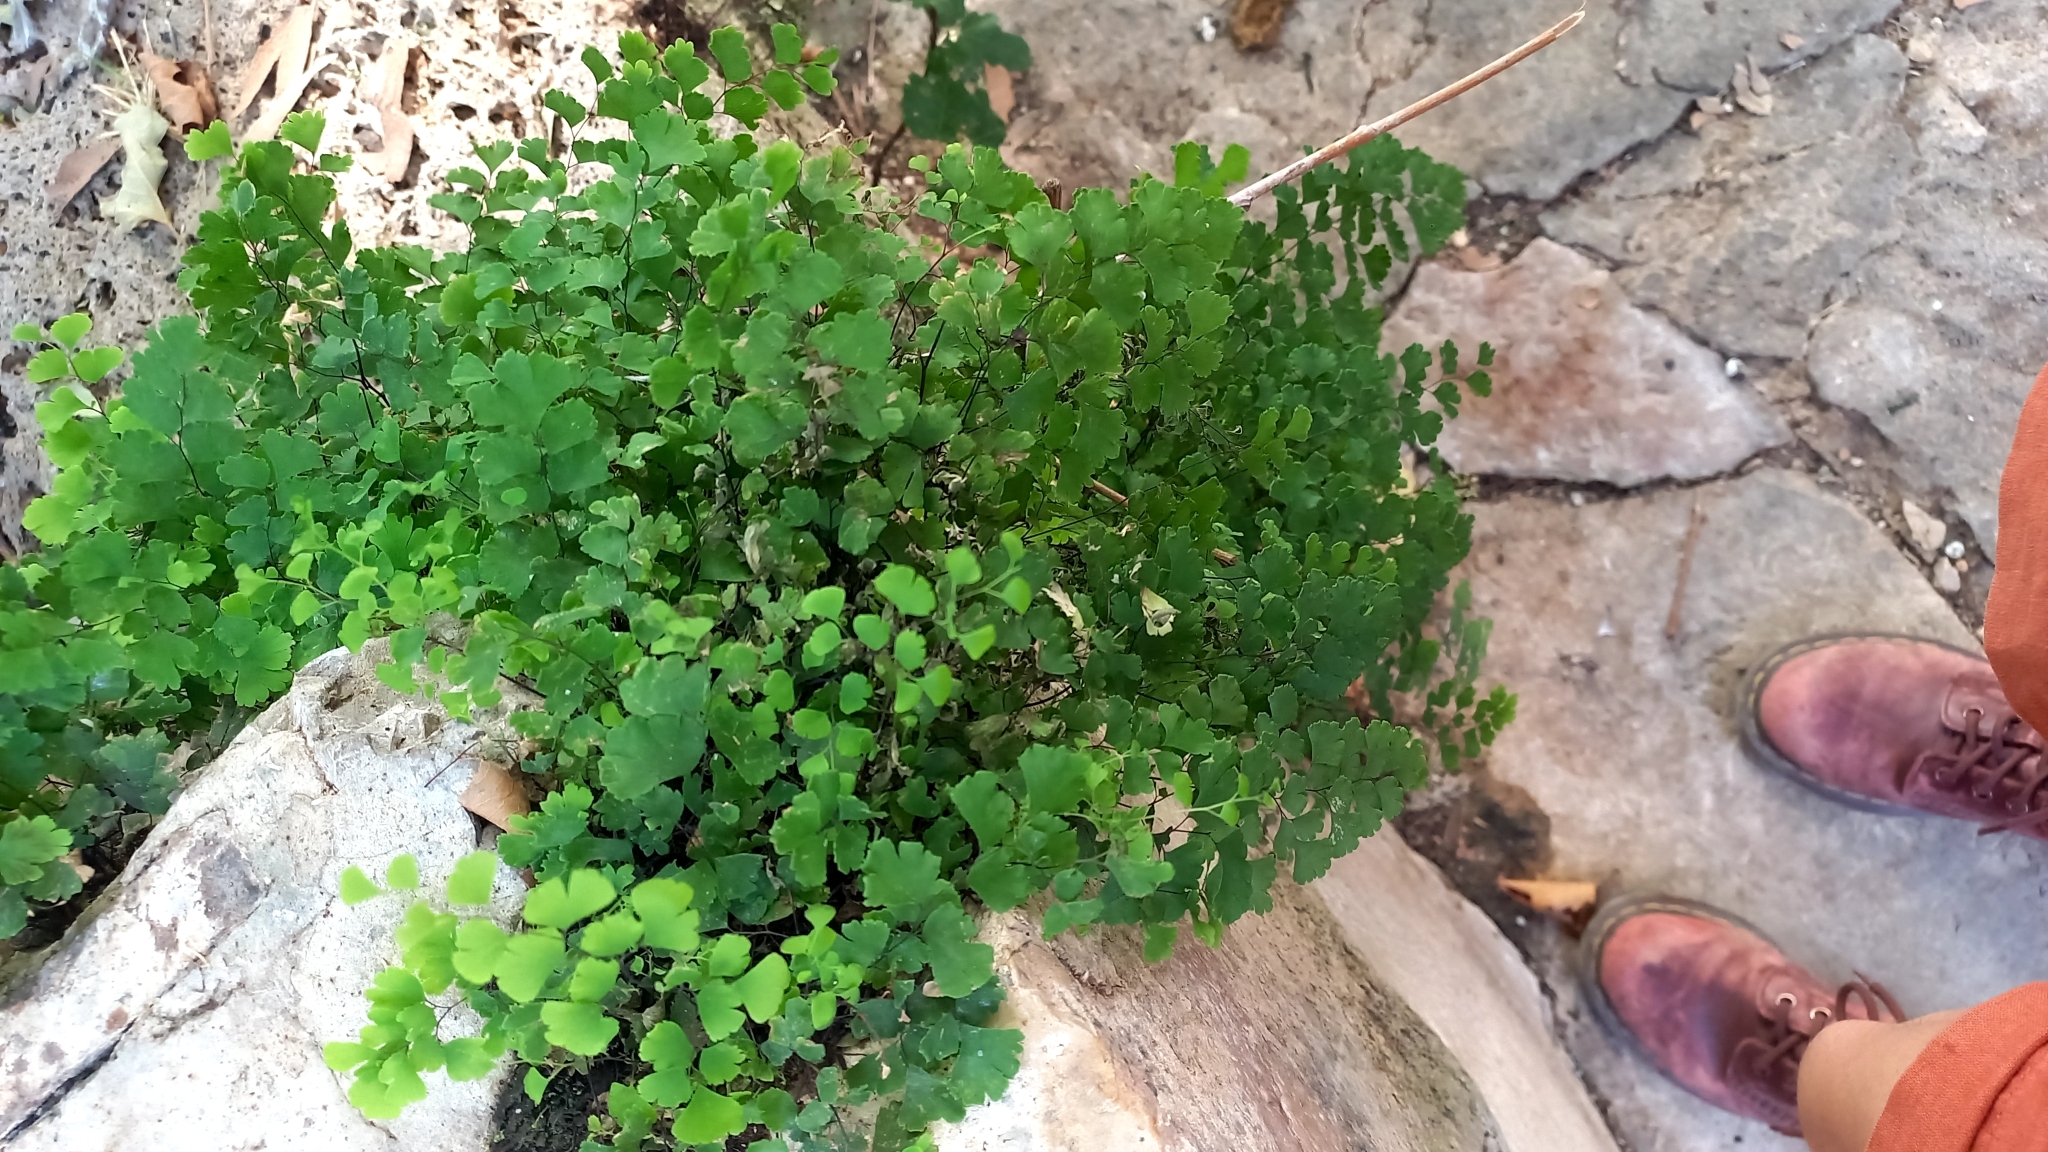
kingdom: Plantae
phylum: Tracheophyta
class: Polypodiopsida
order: Polypodiales
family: Pteridaceae
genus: Adiantum
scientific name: Adiantum capillus-veneris
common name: Maidenhair fern
